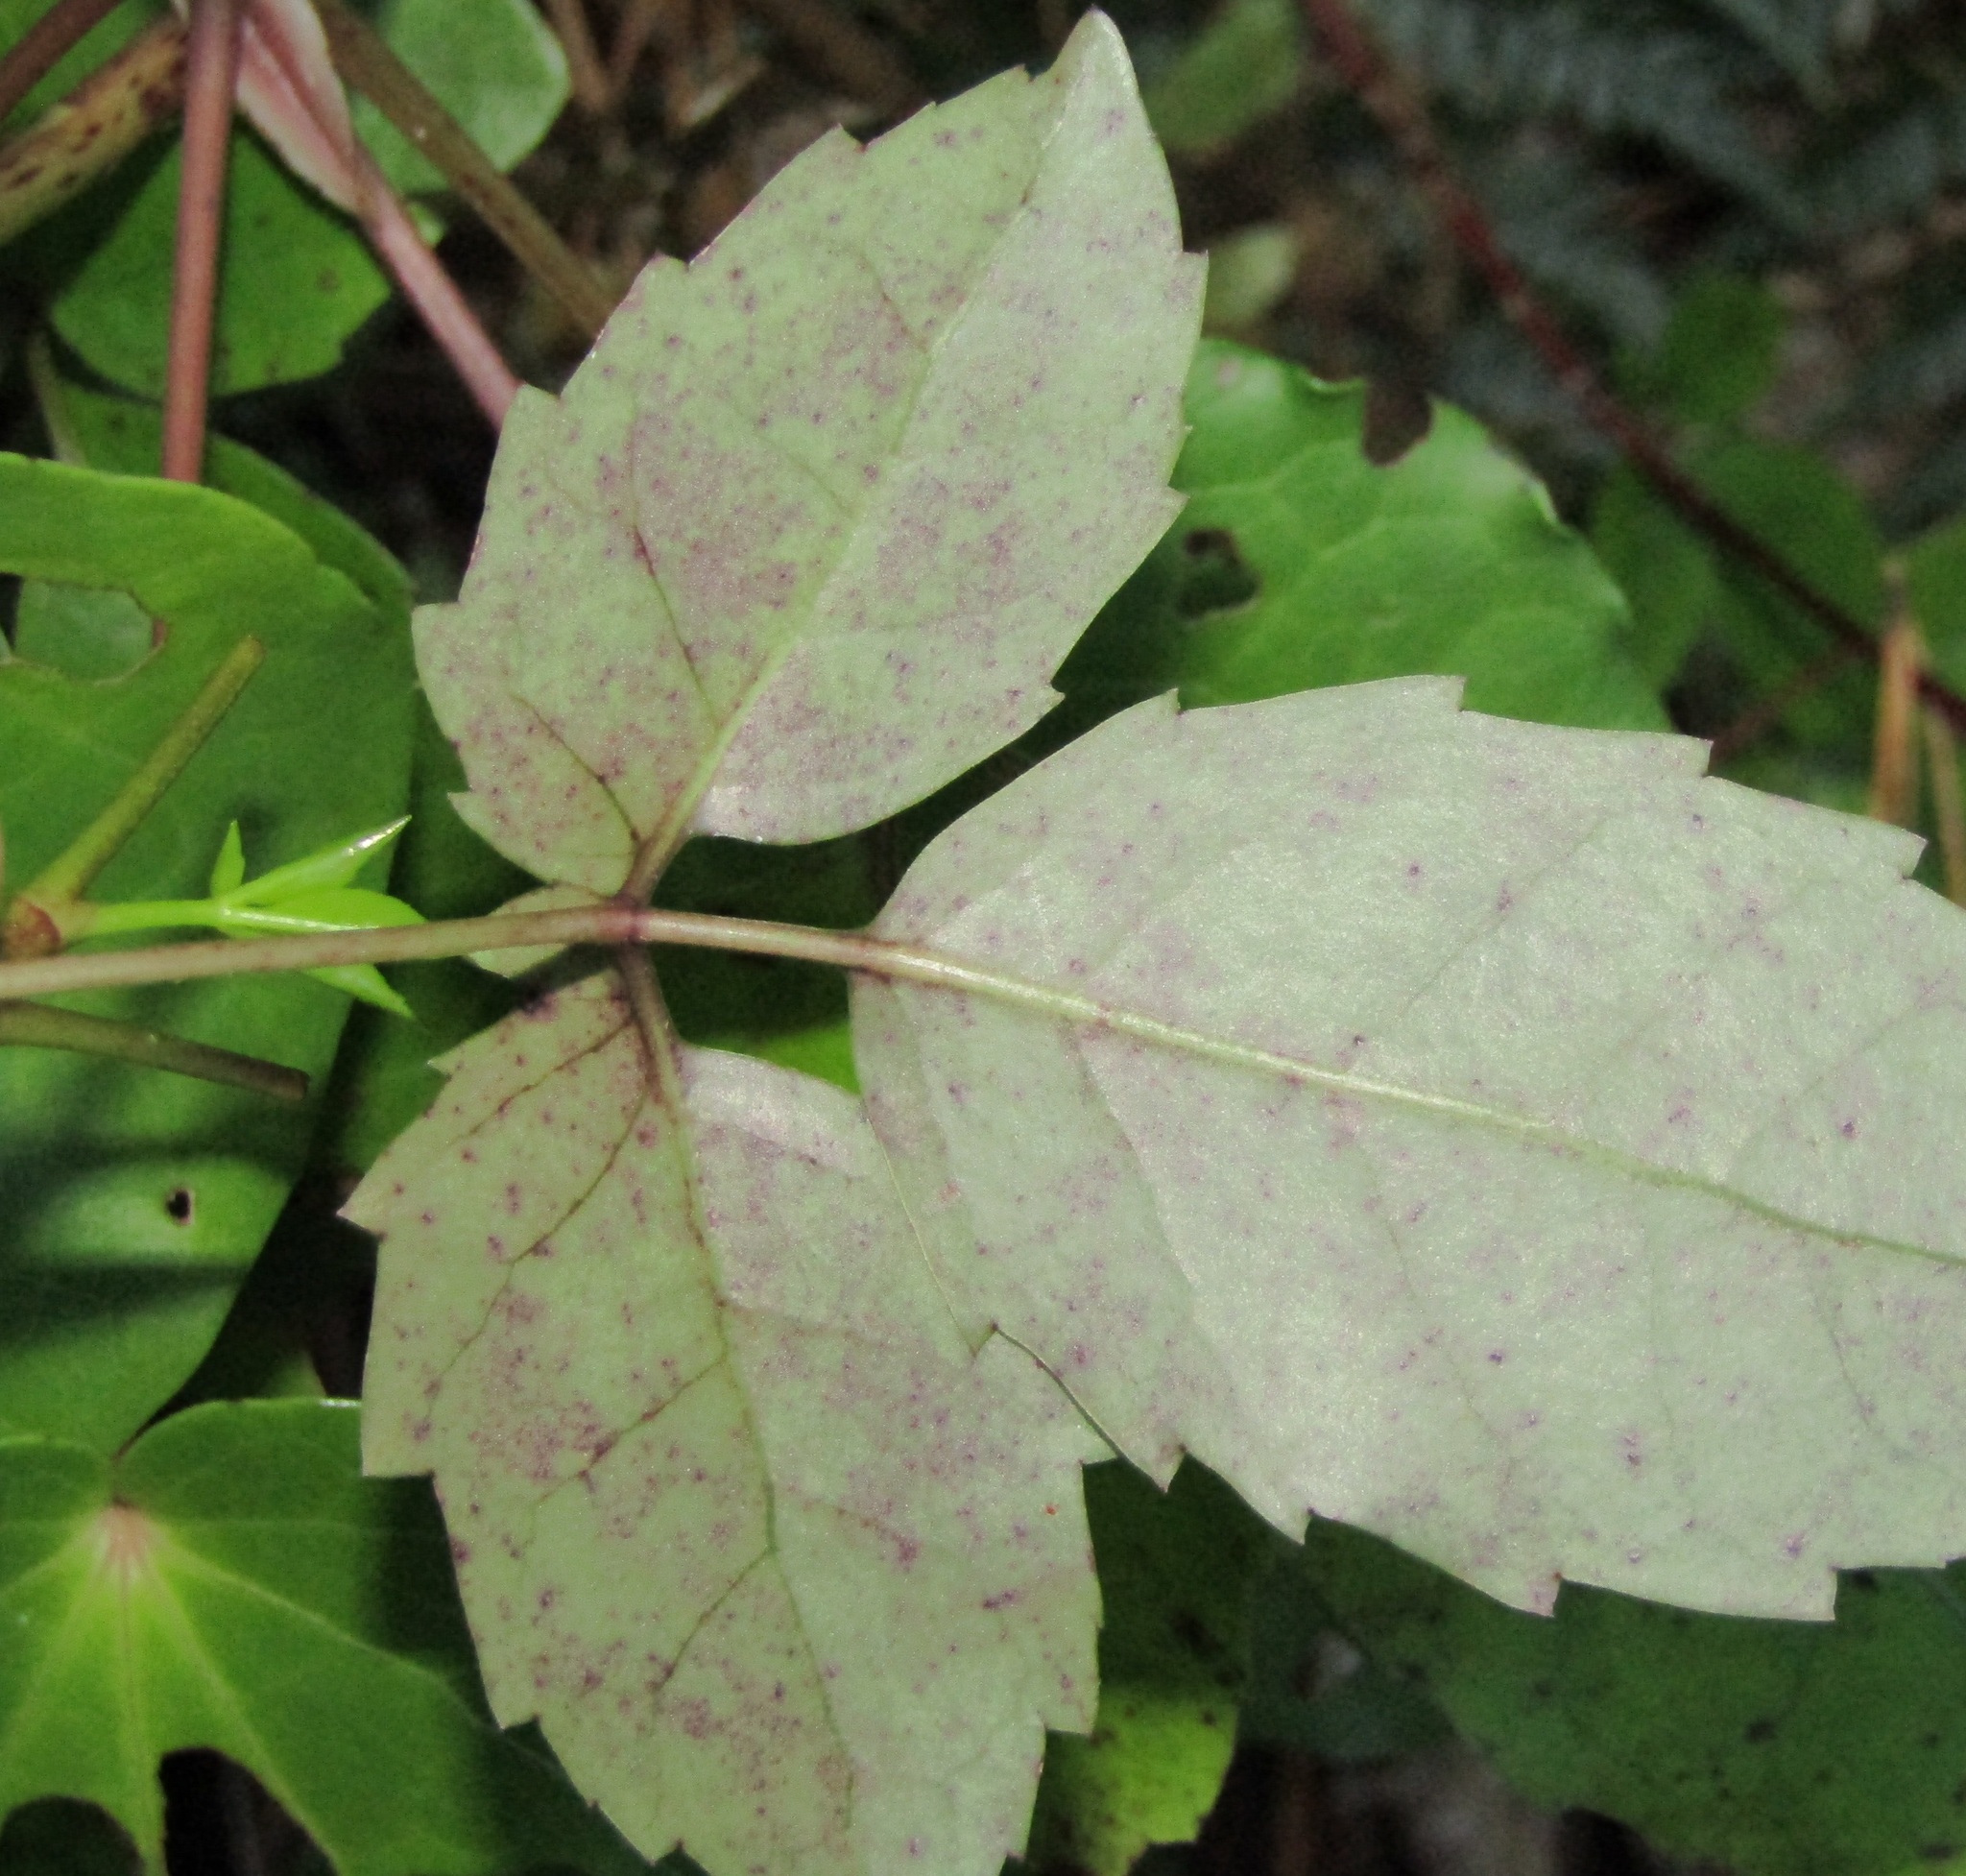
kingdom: Plantae
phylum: Tracheophyta
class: Magnoliopsida
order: Apiales
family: Araliaceae
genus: Neopanax
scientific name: Neopanax arboreus
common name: Five-fingers
